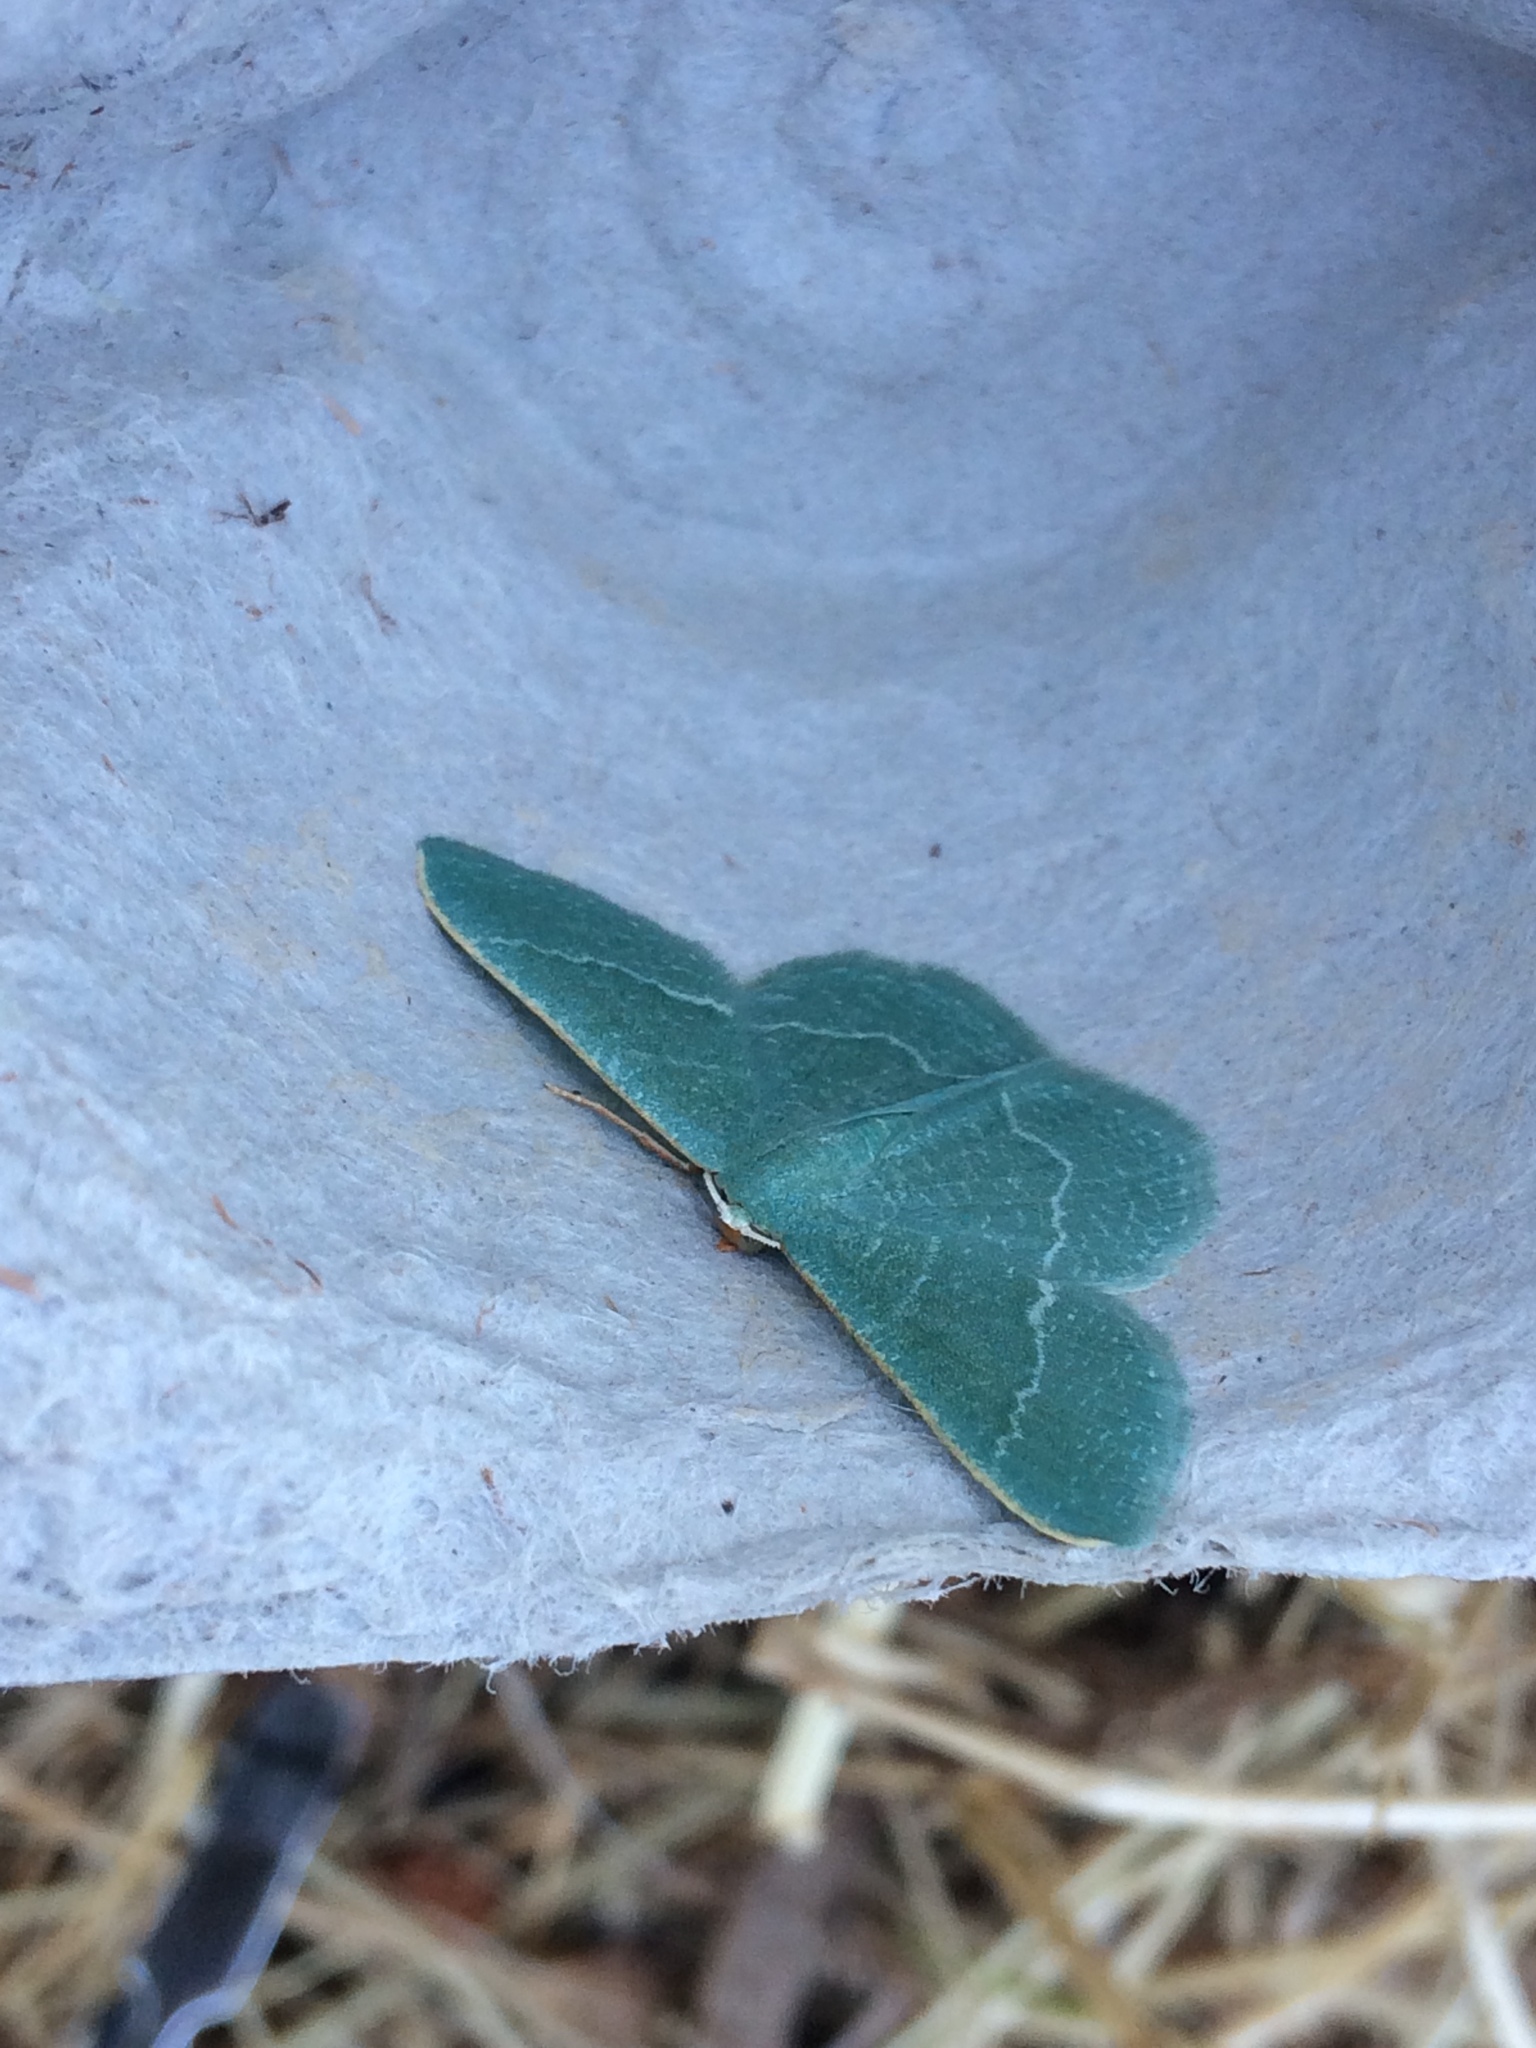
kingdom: Animalia
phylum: Arthropoda
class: Insecta
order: Lepidoptera
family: Geometridae
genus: Chlorissa
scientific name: Chlorissa etruscaria
